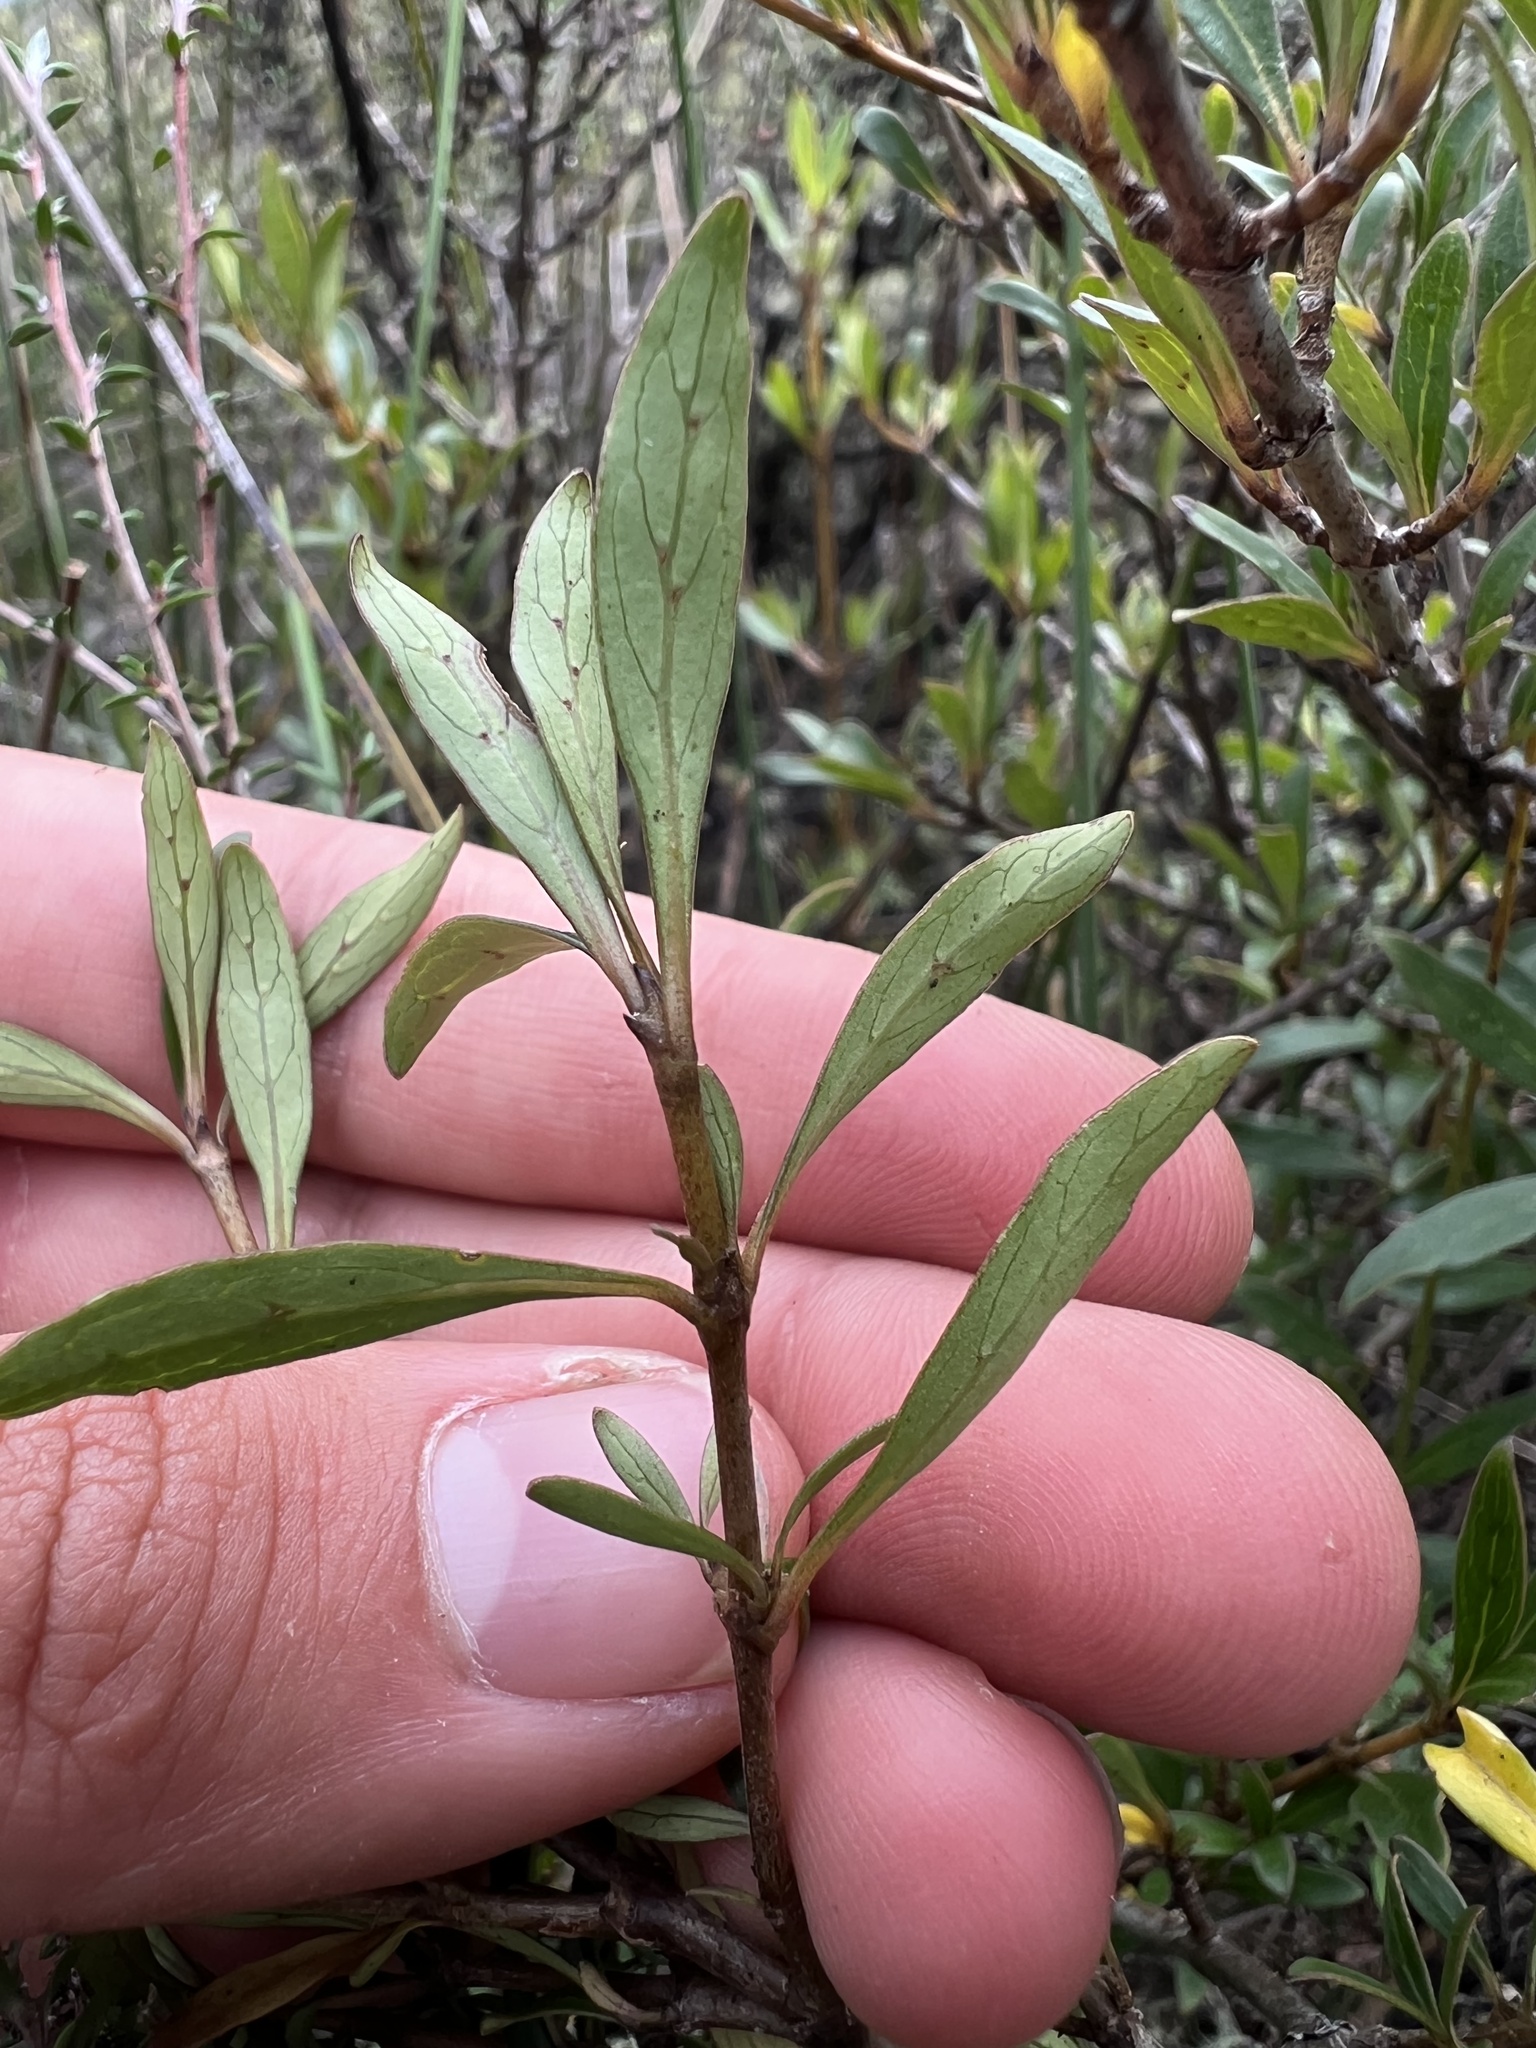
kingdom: Plantae
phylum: Tracheophyta
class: Magnoliopsida
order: Gentianales
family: Rubiaceae
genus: Coprosma
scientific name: Coprosma cunninghamii
